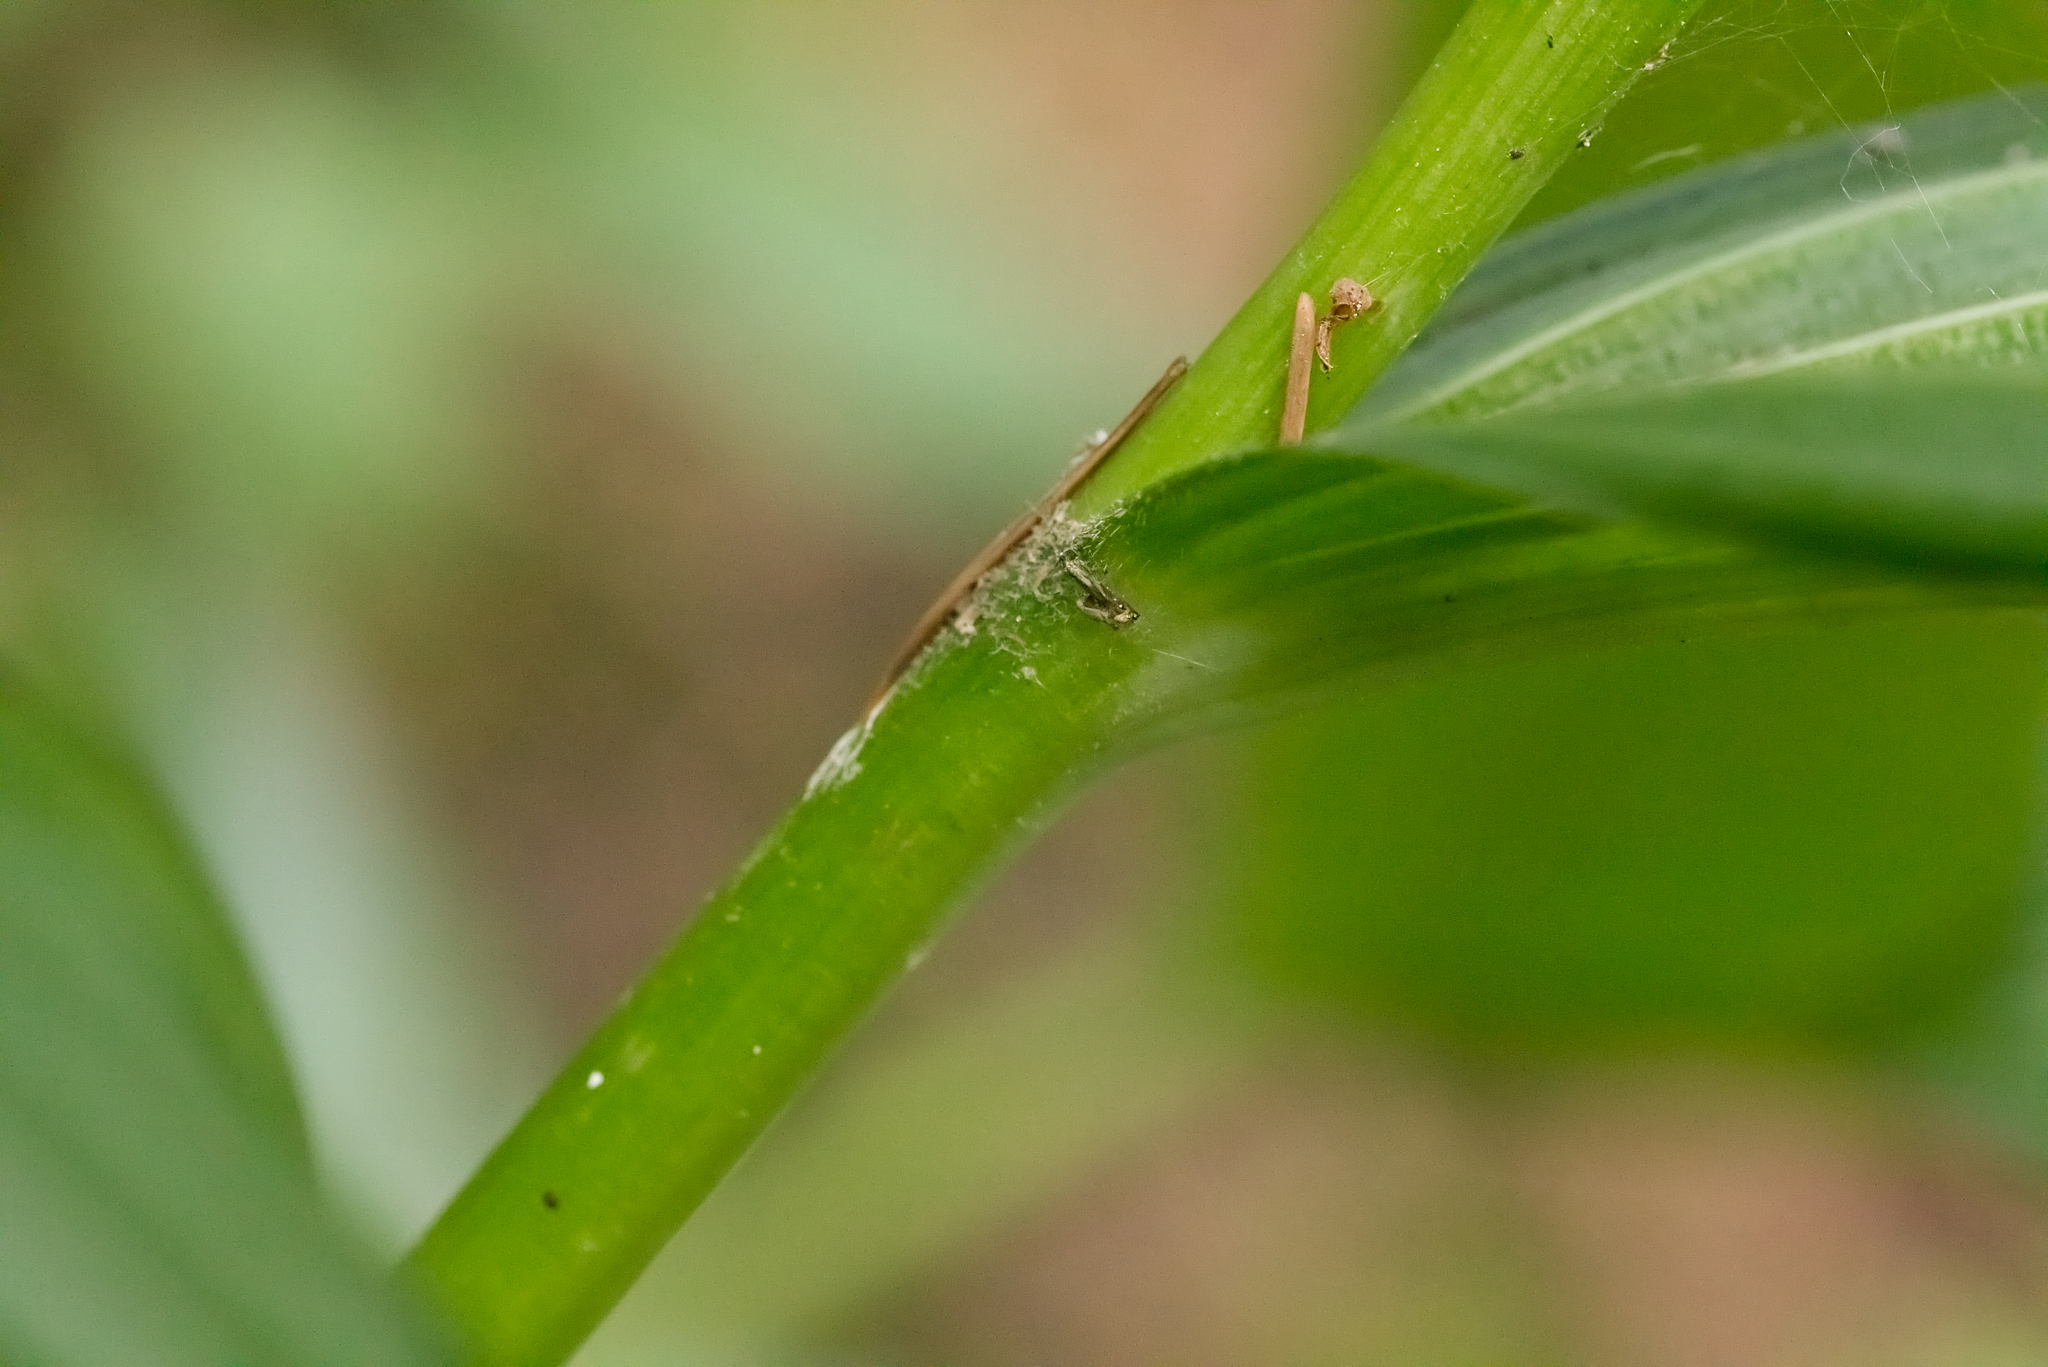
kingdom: Plantae
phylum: Tracheophyta
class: Liliopsida
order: Liliales
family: Melanthiaceae
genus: Veratrum
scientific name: Veratrum album
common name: White veratrum
